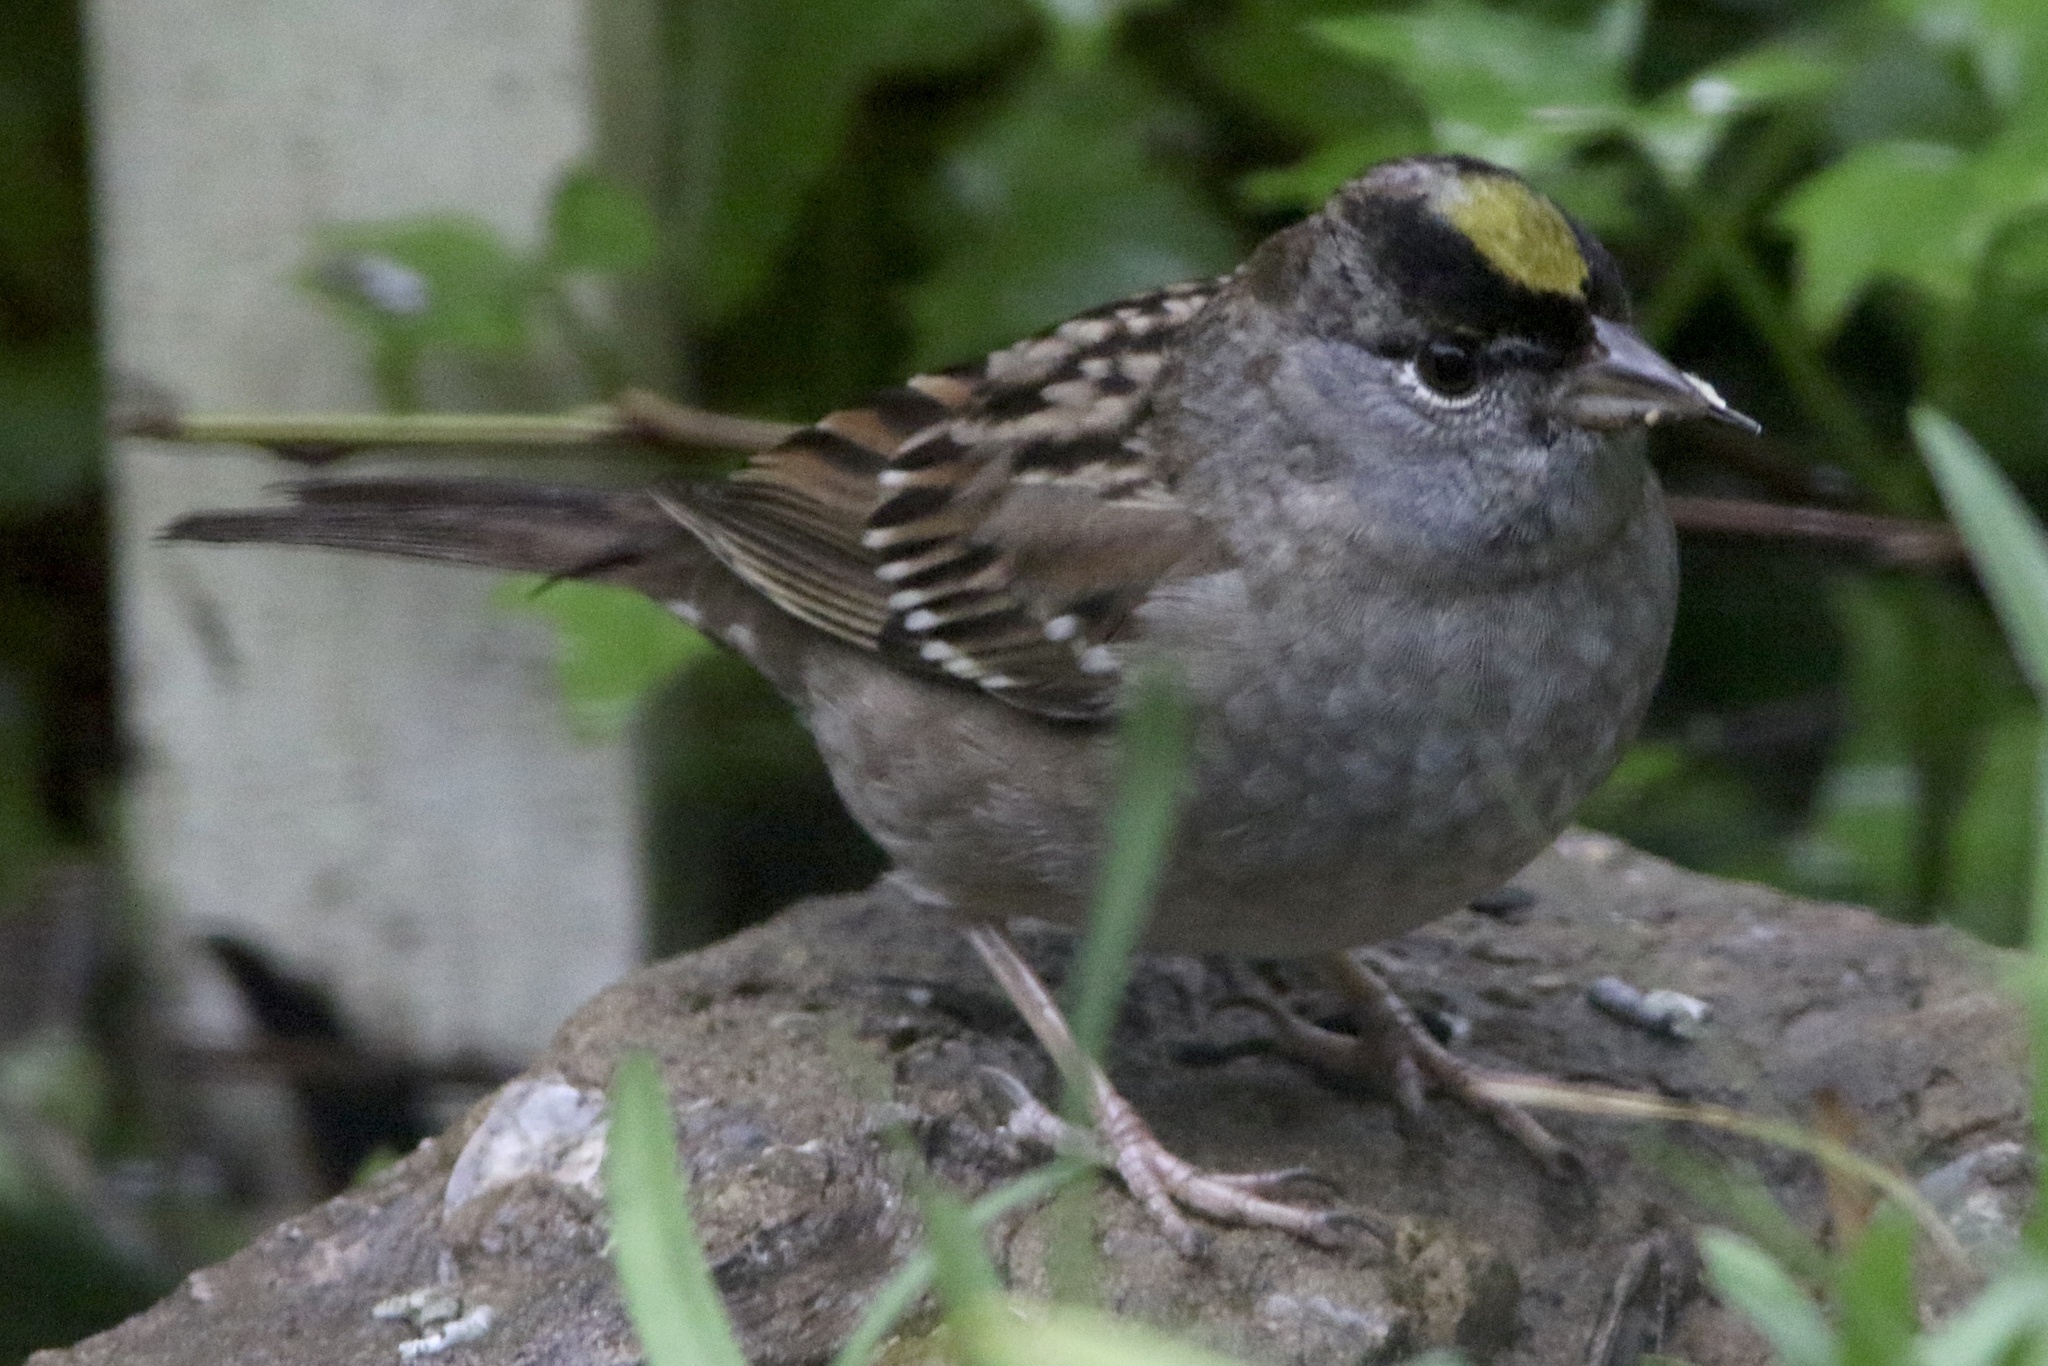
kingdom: Animalia
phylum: Chordata
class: Aves
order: Passeriformes
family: Passerellidae
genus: Zonotrichia
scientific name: Zonotrichia atricapilla
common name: Golden-crowned sparrow
